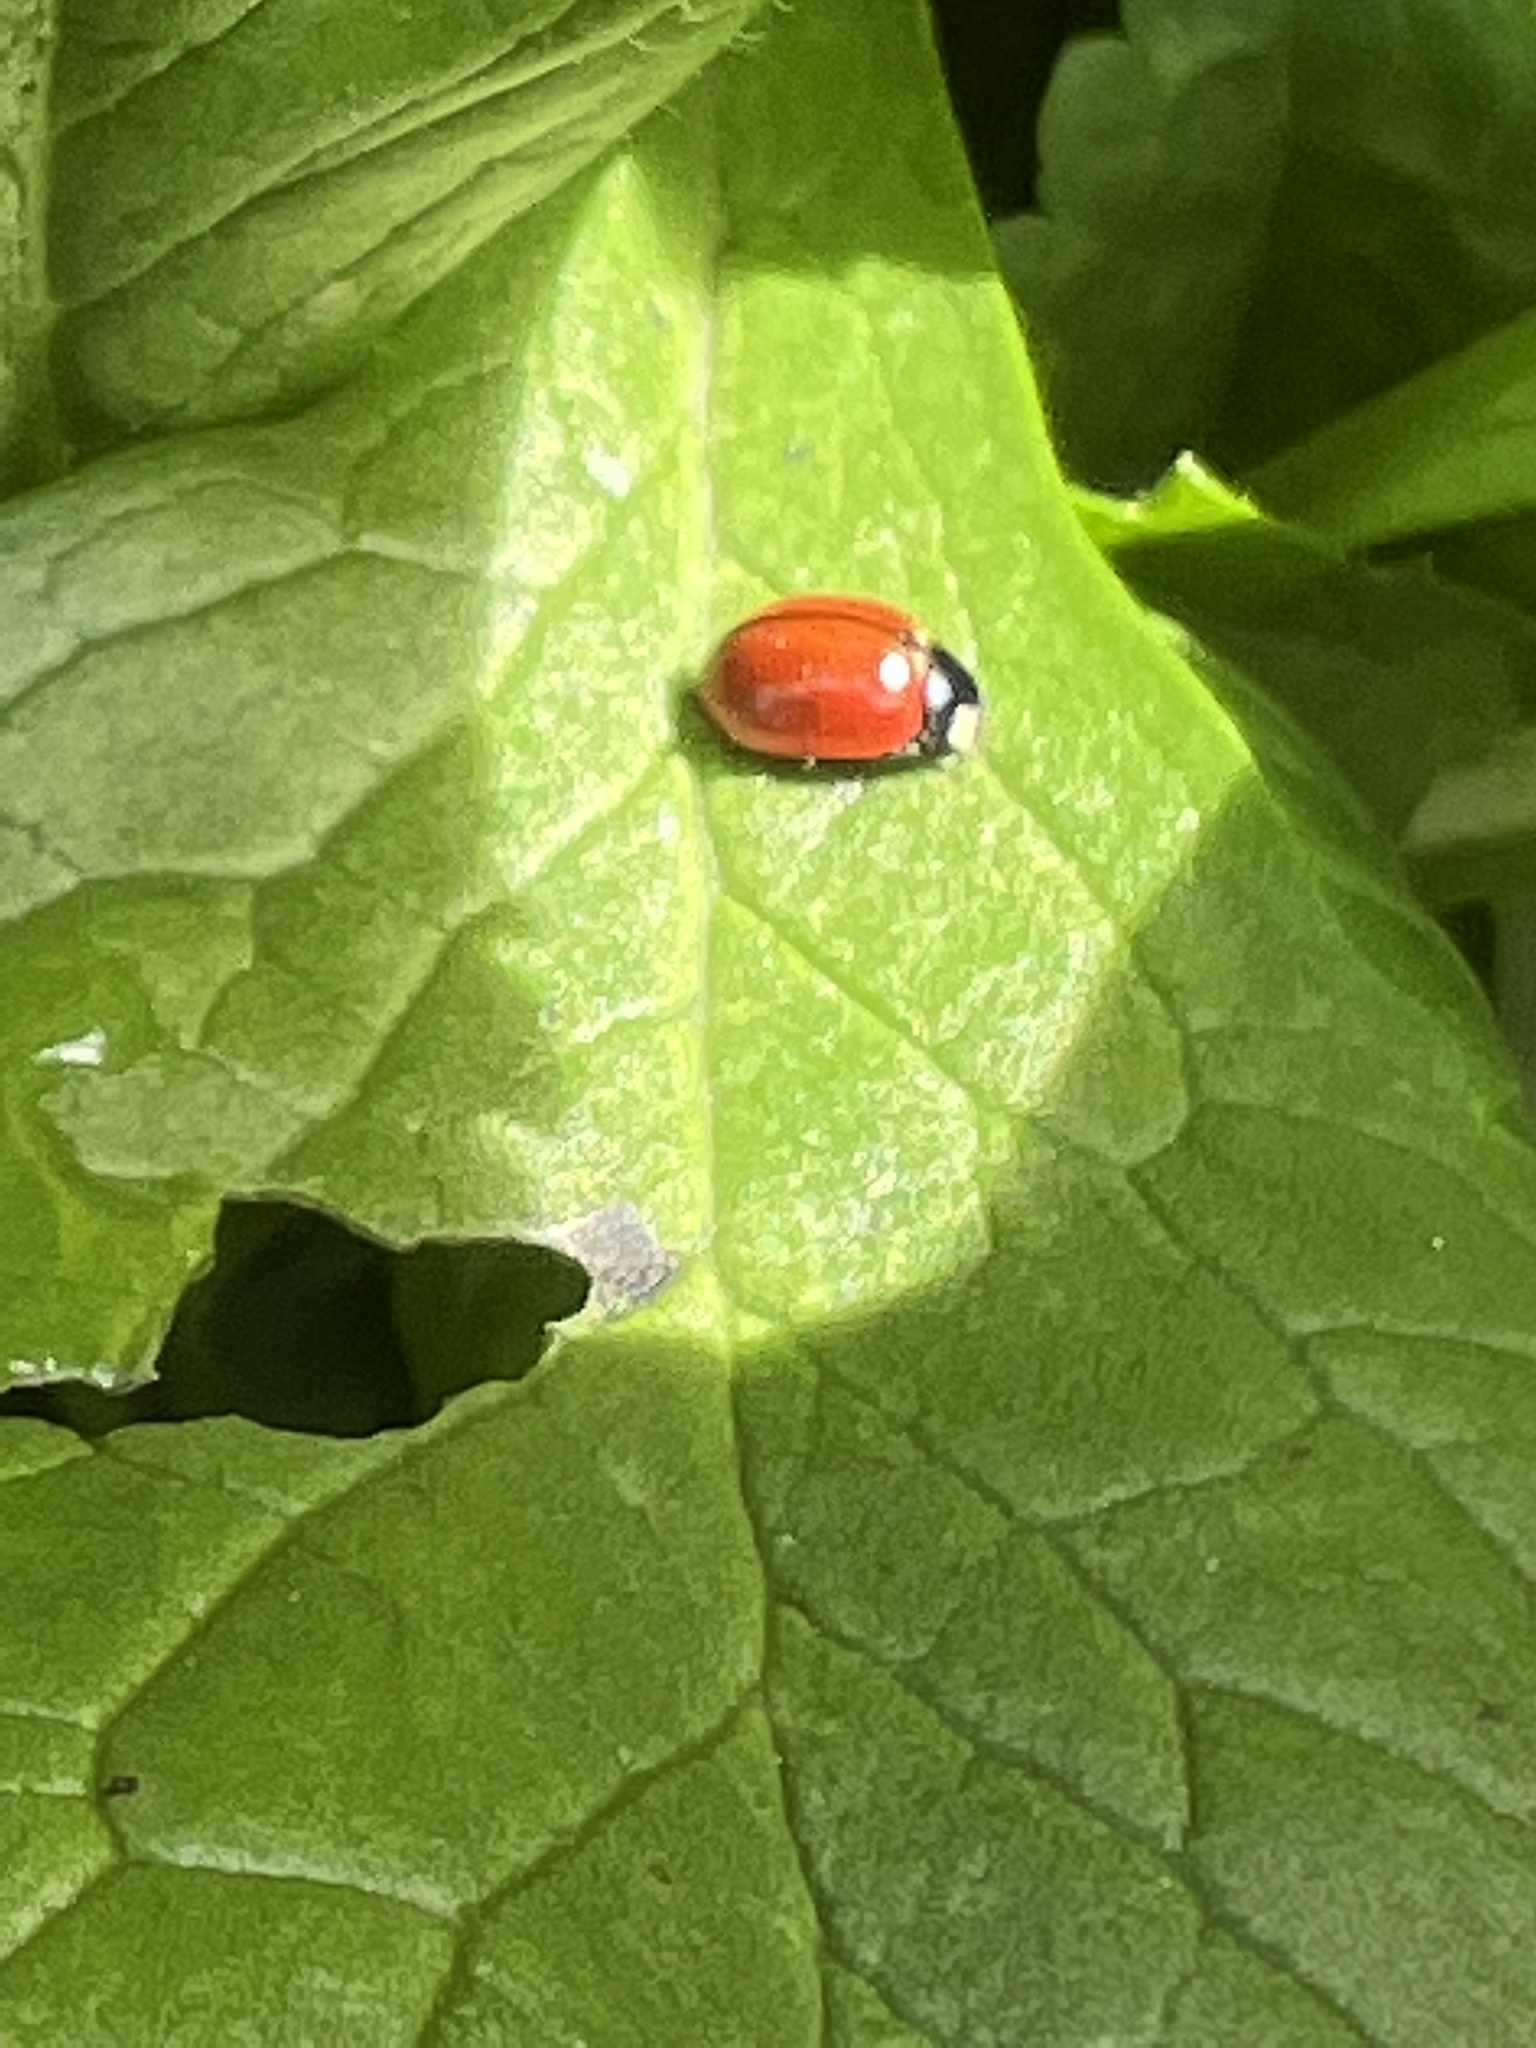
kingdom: Animalia
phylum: Arthropoda
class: Insecta
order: Coleoptera
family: Coccinellidae
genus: Coccinella
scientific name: Coccinella californica
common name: Lady beetle
